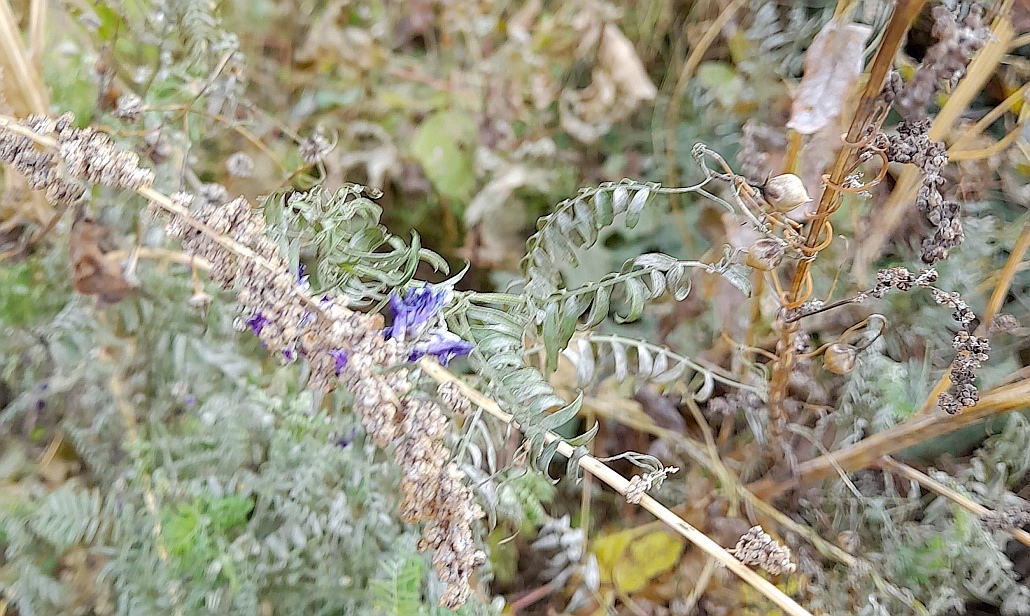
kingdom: Plantae
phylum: Tracheophyta
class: Magnoliopsida
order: Fabales
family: Fabaceae
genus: Vicia
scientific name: Vicia cracca
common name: Bird vetch
